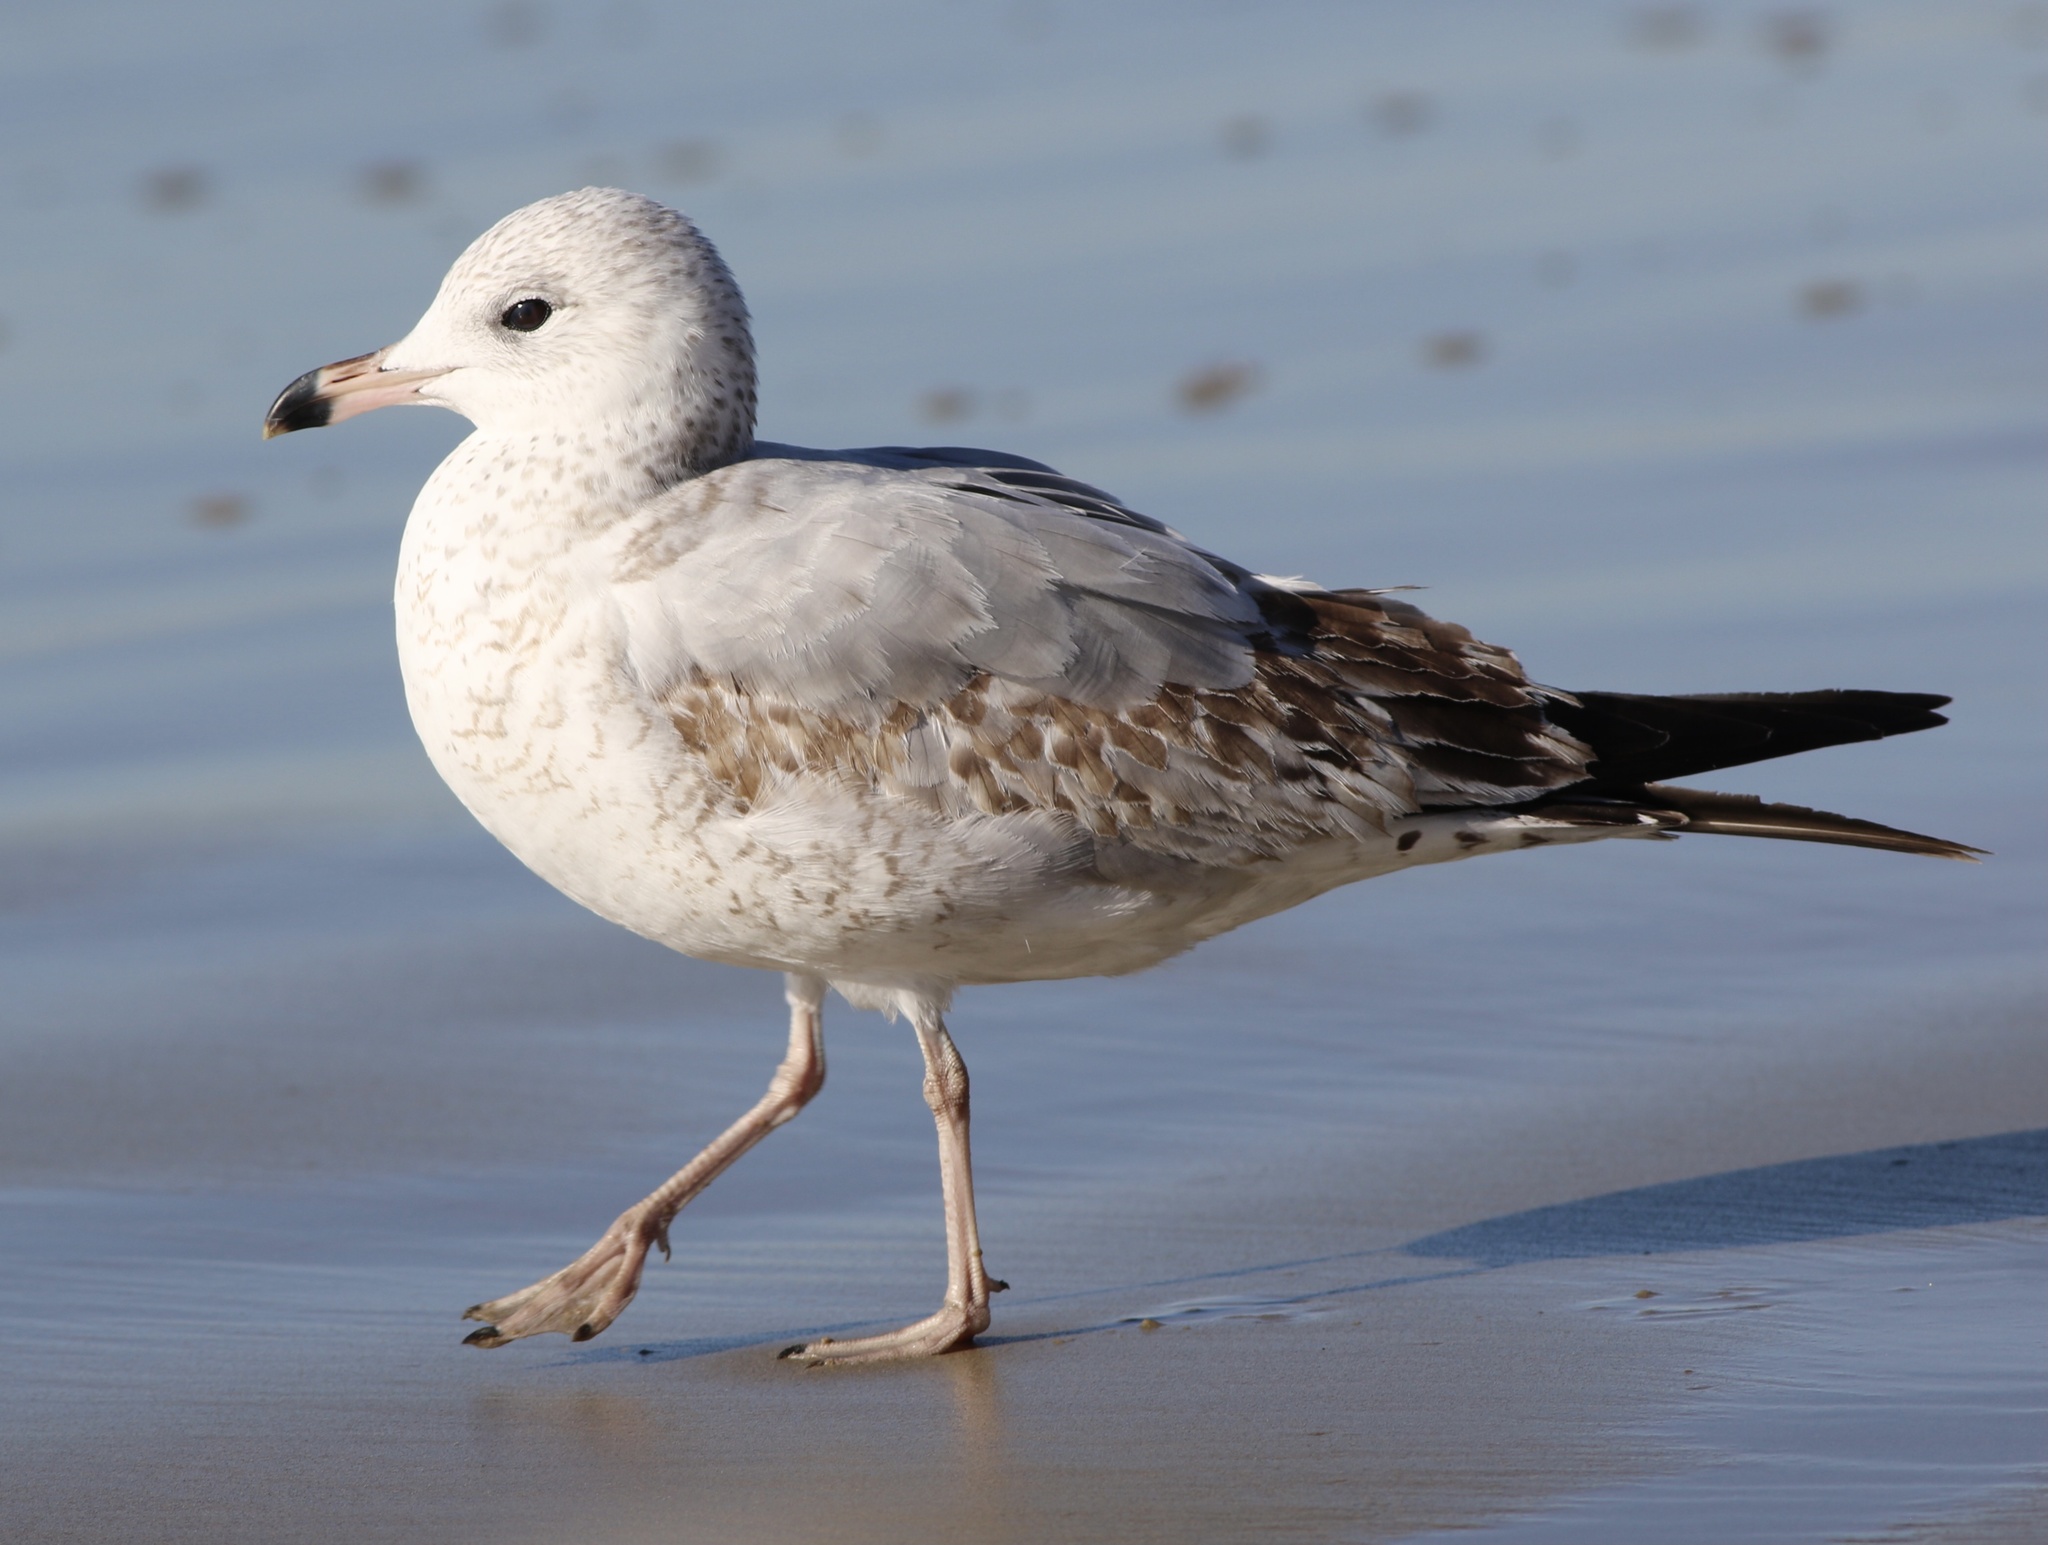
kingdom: Animalia
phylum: Chordata
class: Aves
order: Charadriiformes
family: Laridae
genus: Larus
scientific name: Larus delawarensis
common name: Ring-billed gull
